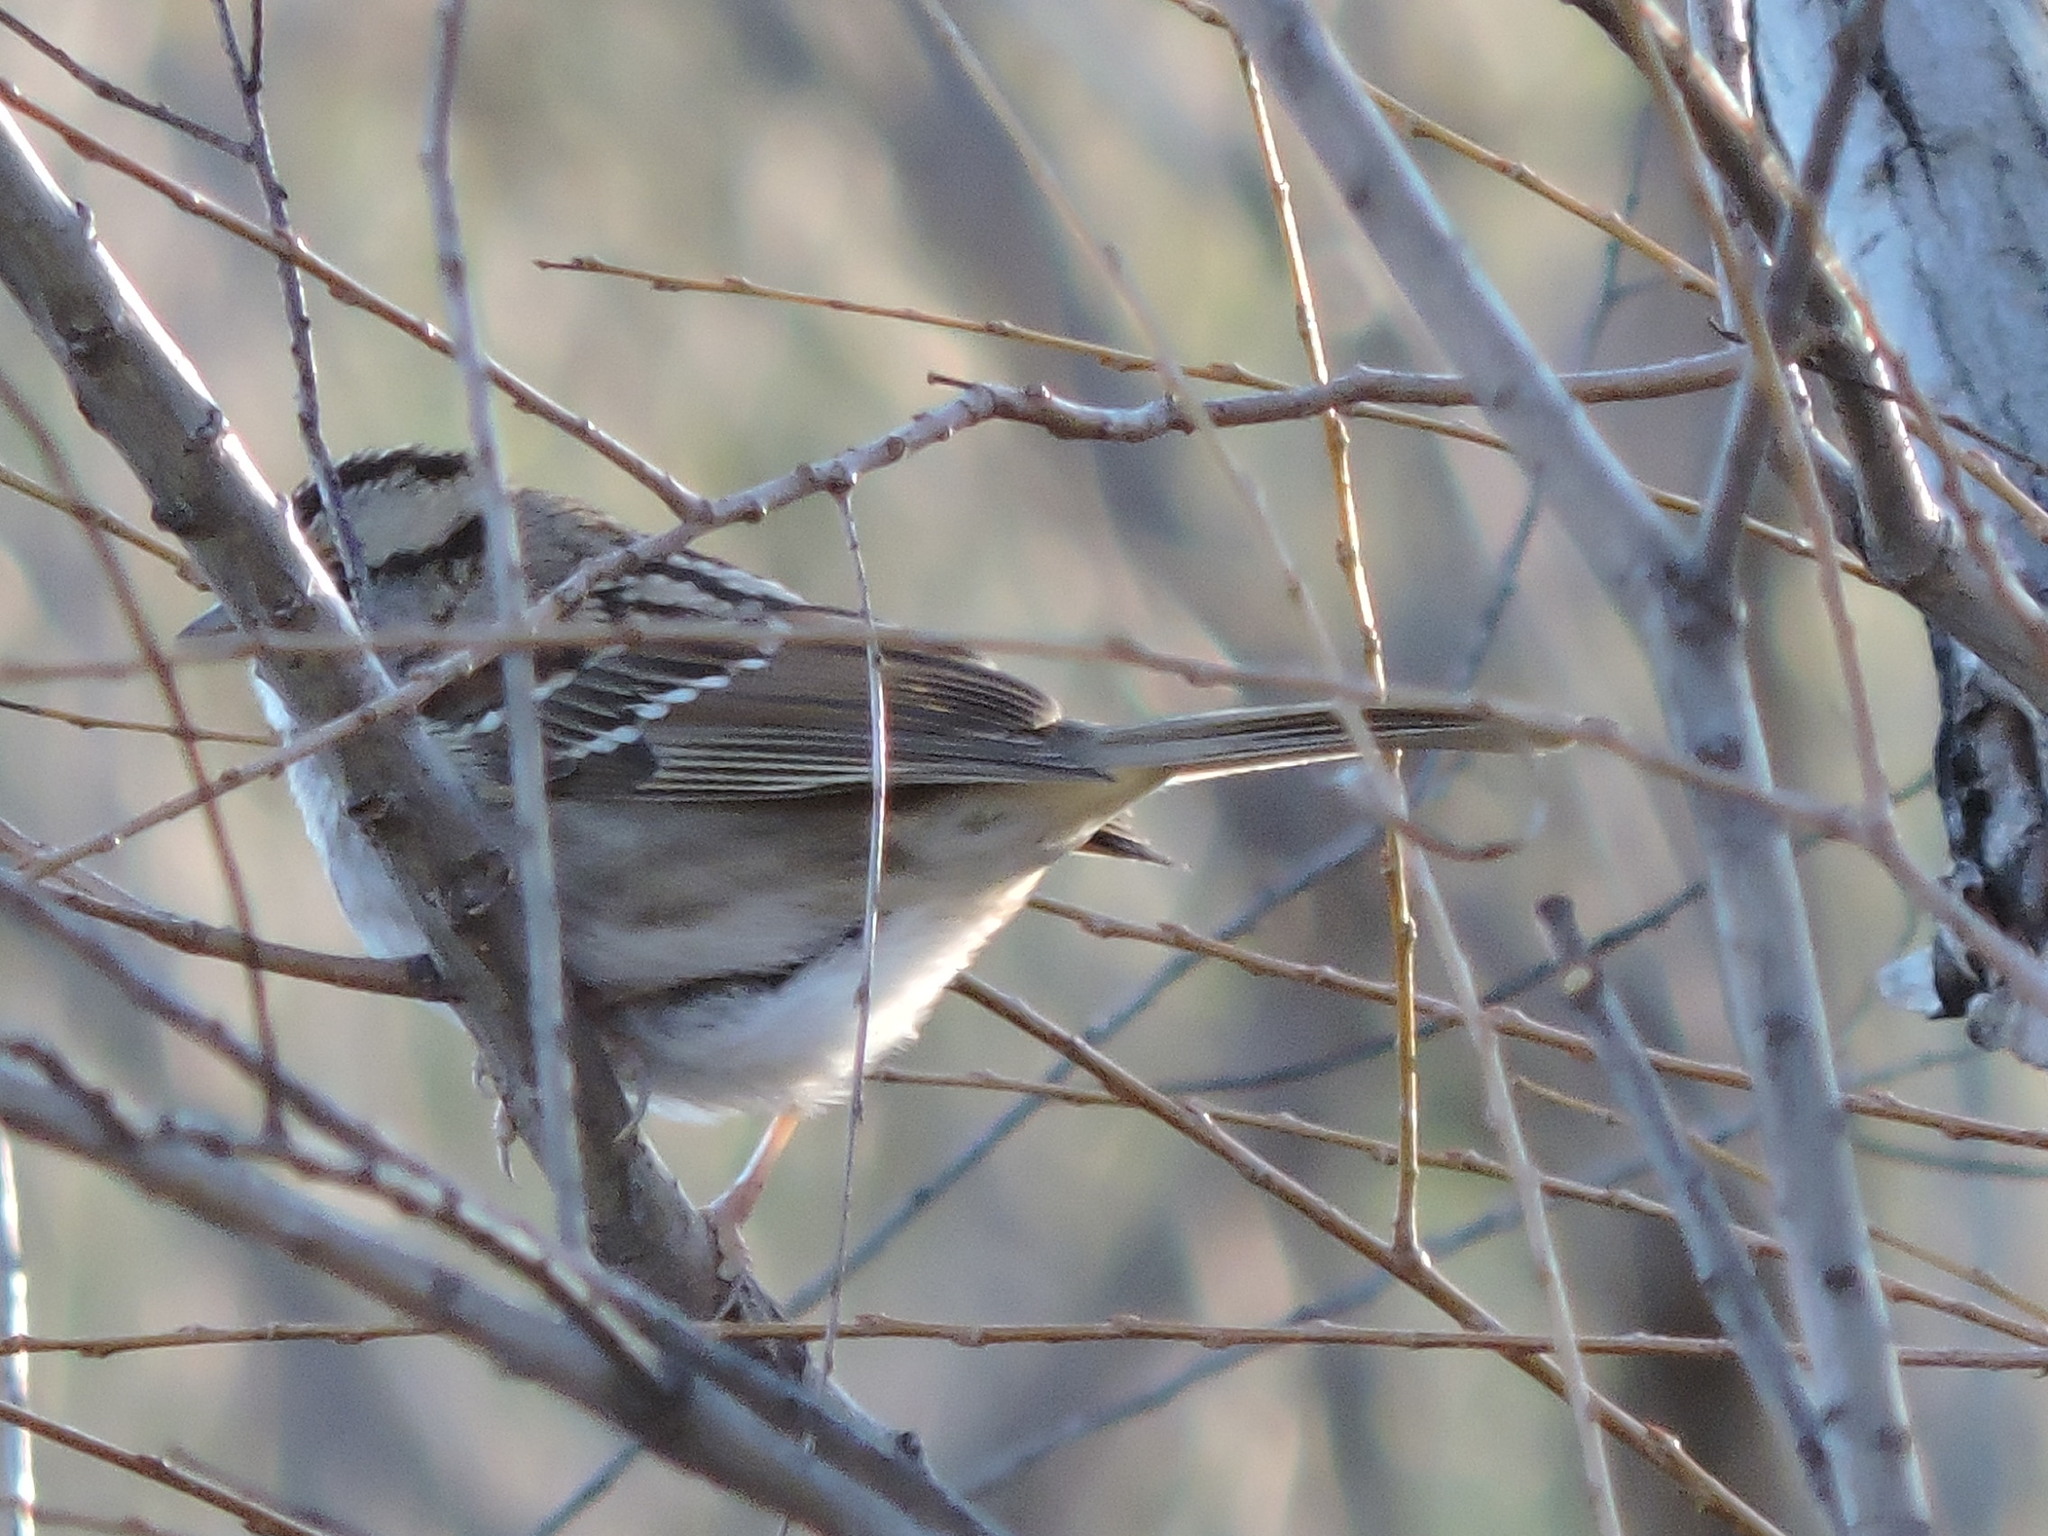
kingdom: Animalia
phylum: Chordata
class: Aves
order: Passeriformes
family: Passerellidae
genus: Zonotrichia
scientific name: Zonotrichia albicollis
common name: White-throated sparrow
